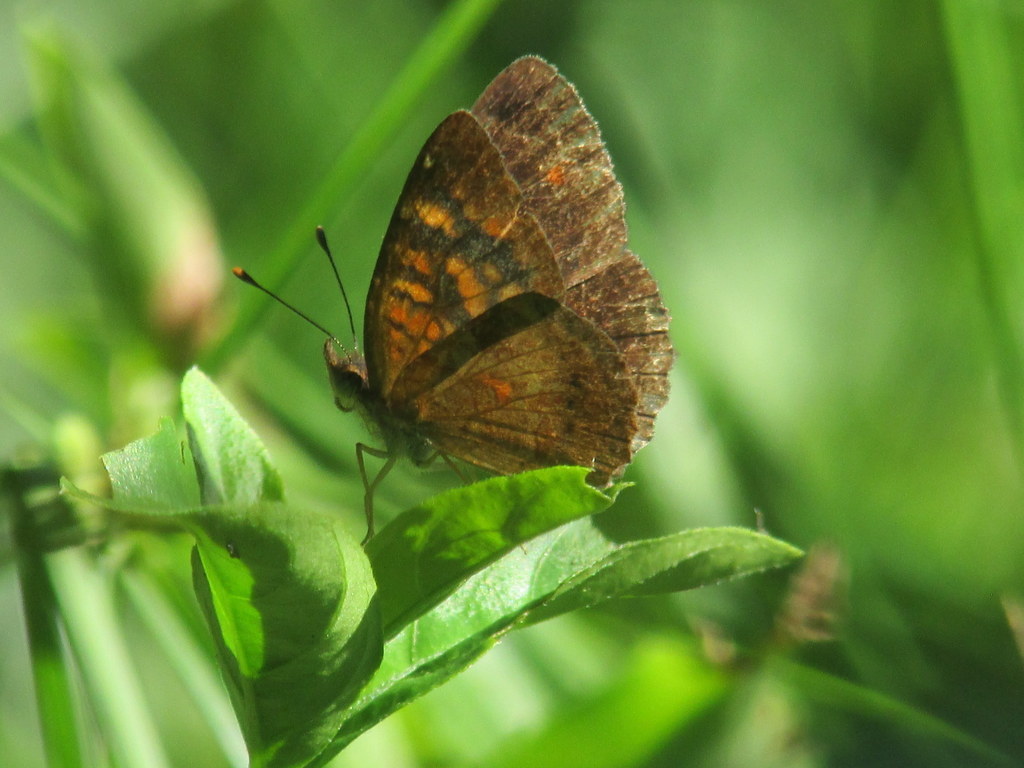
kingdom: Animalia
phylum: Arthropoda
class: Insecta
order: Lepidoptera
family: Nymphalidae
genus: Ortilia
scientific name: Ortilia velica
